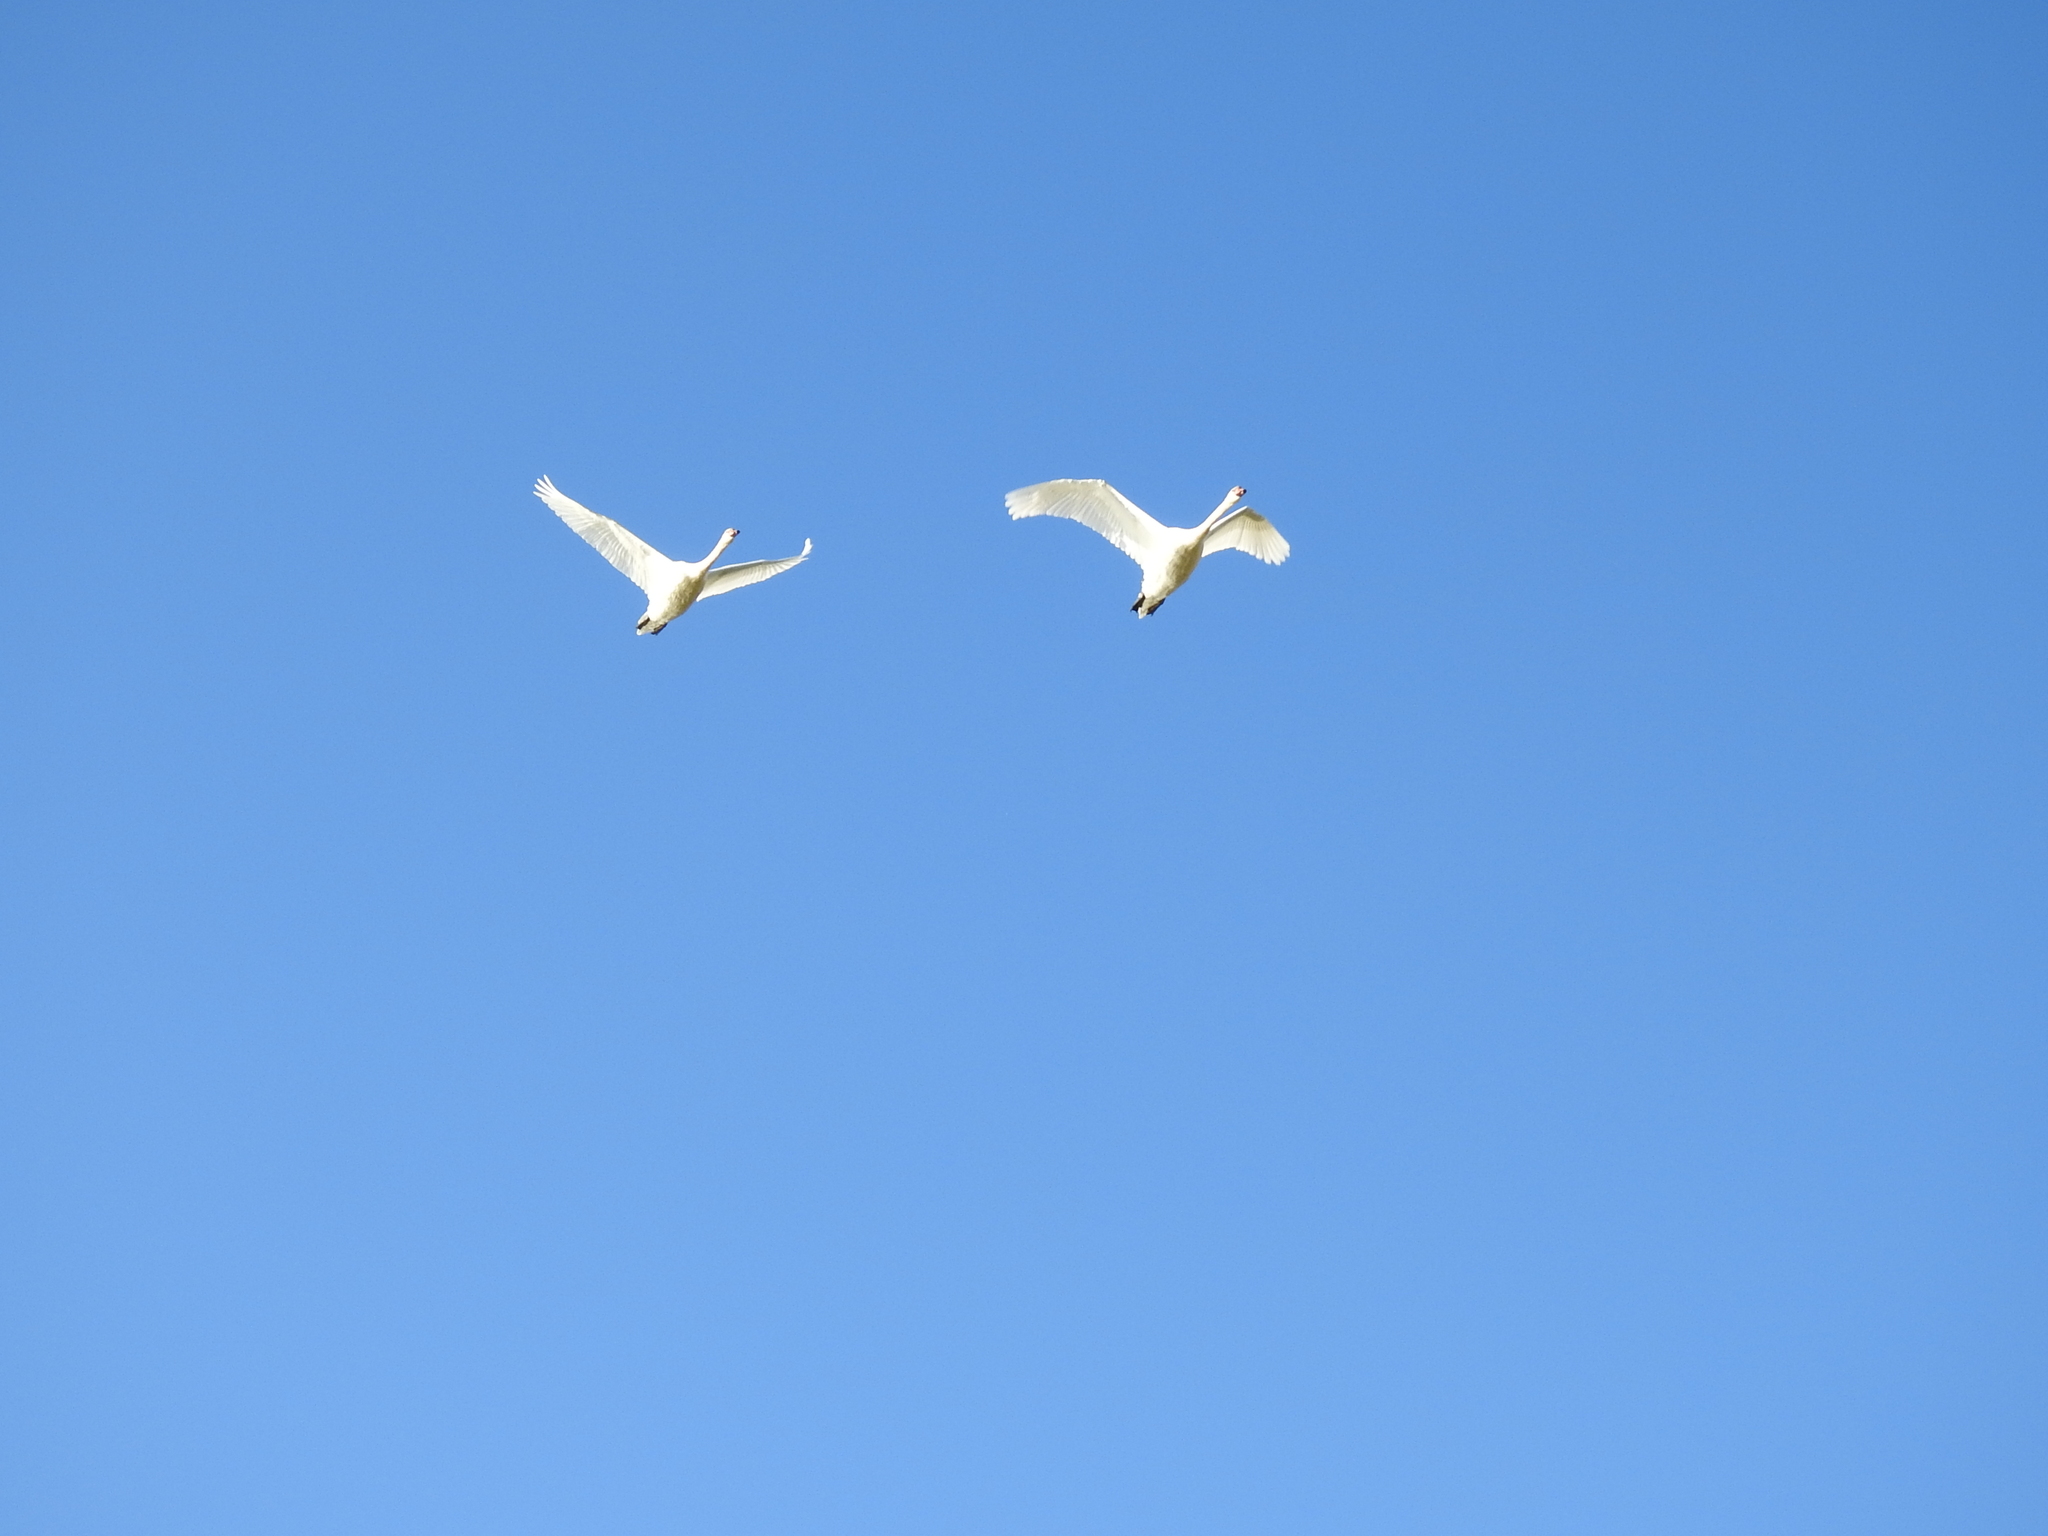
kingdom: Animalia
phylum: Chordata
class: Aves
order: Anseriformes
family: Anatidae
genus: Cygnus
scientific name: Cygnus cygnus
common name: Whooper swan
